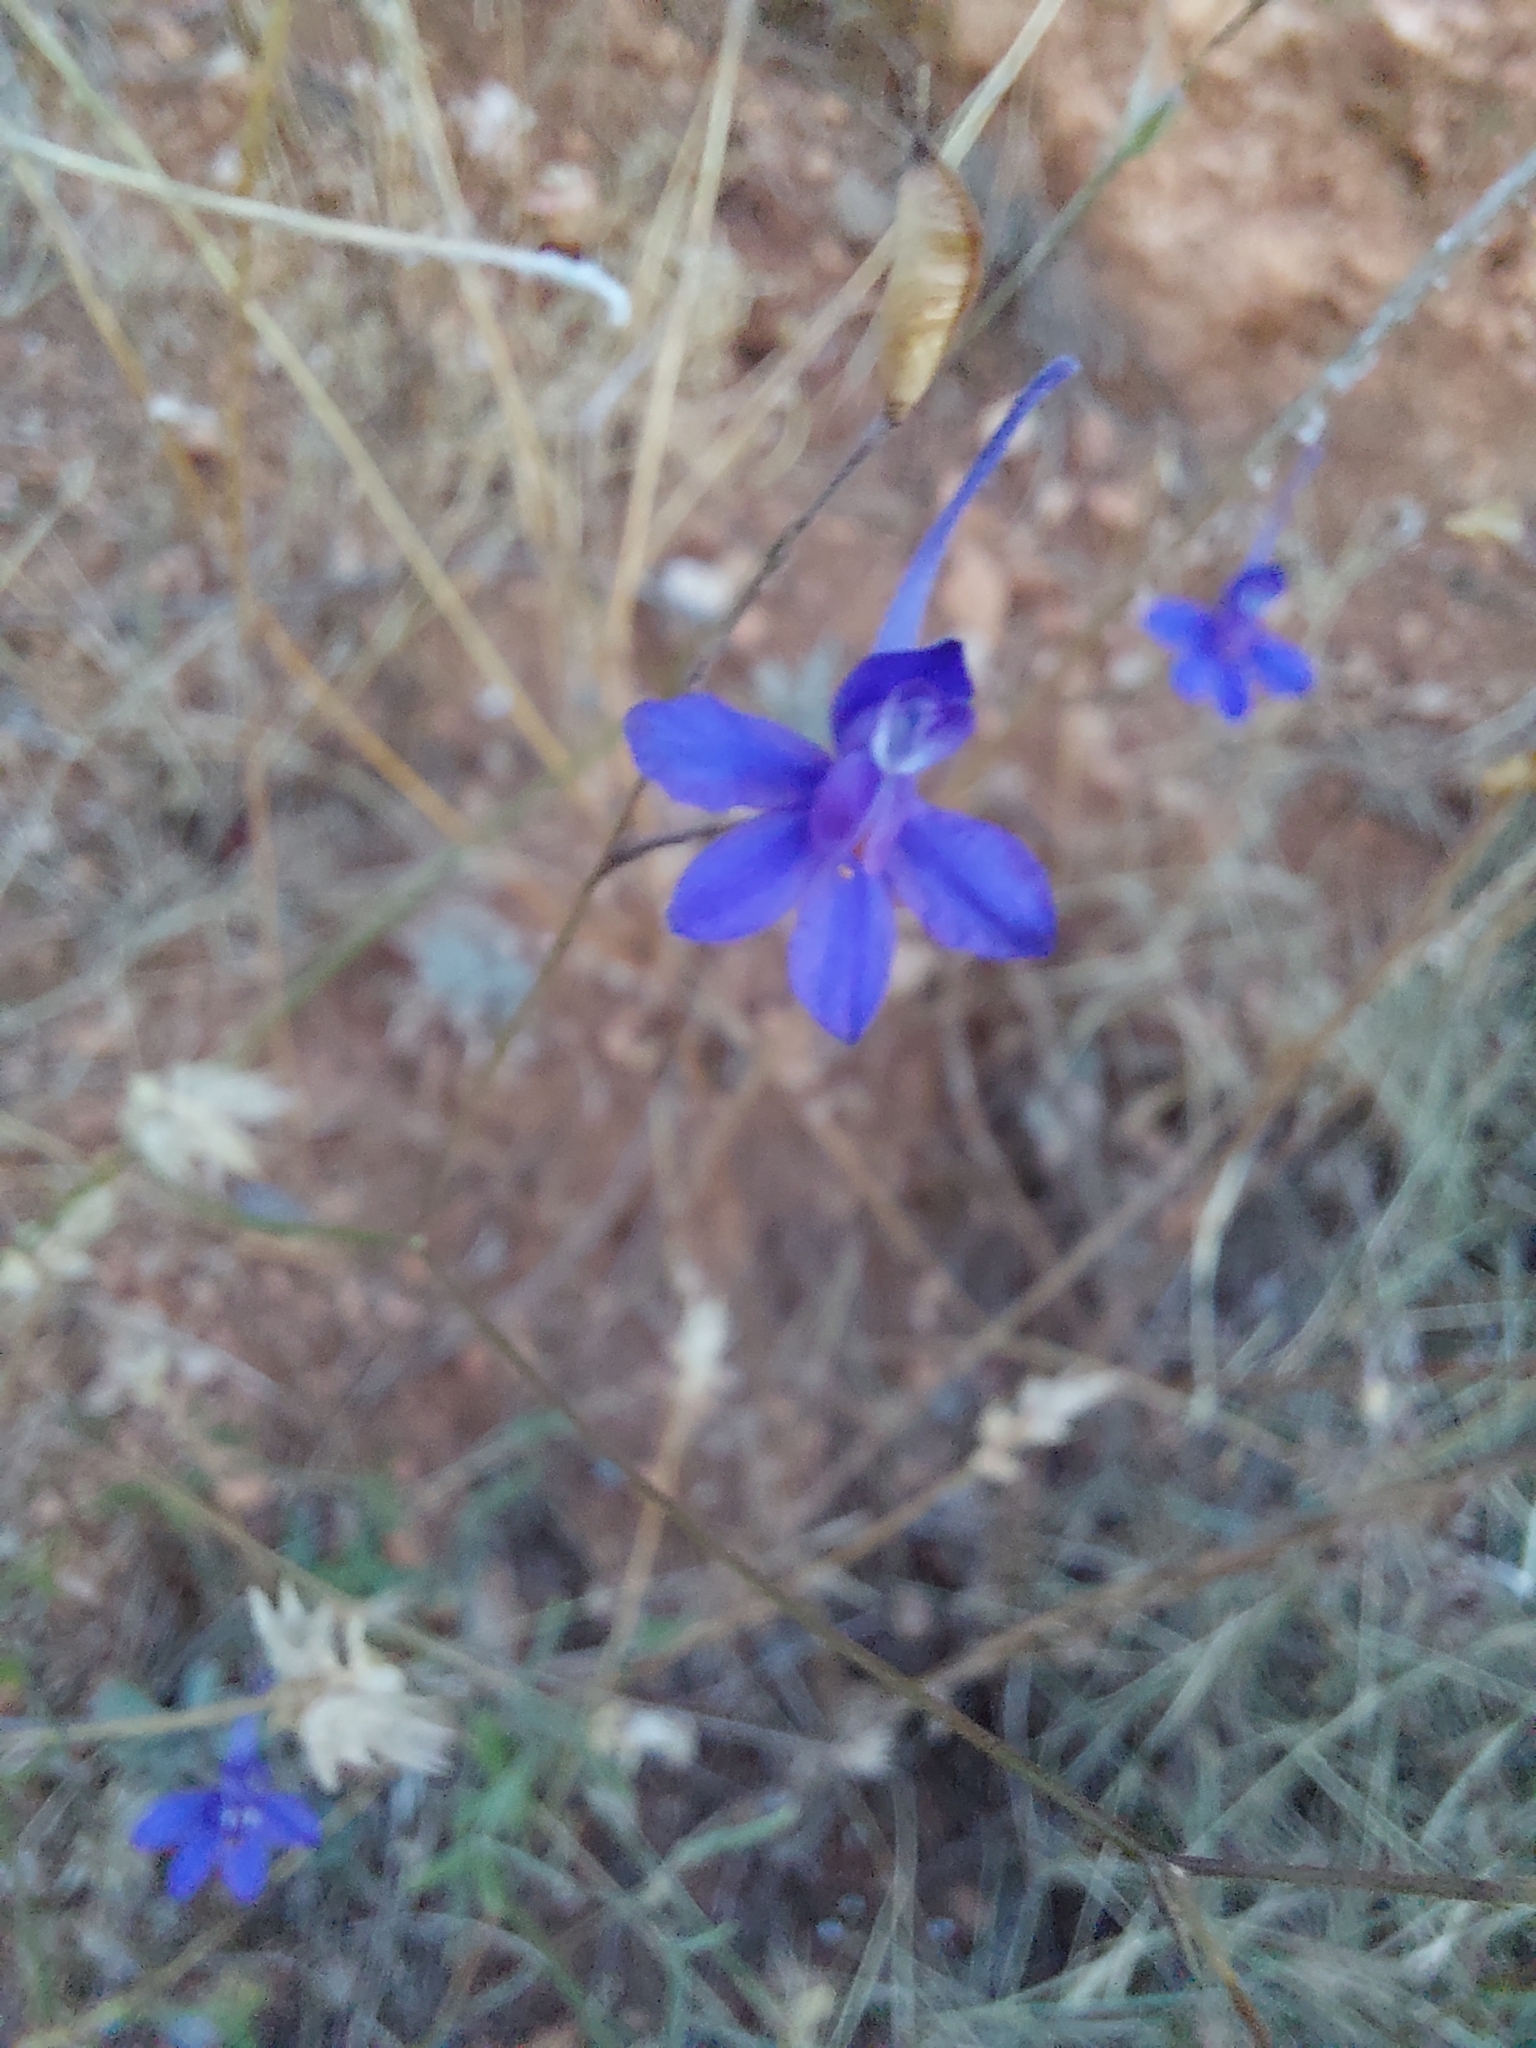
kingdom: Plantae
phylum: Tracheophyta
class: Magnoliopsida
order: Ranunculales
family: Ranunculaceae
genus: Delphinium
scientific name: Delphinium consolida
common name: Branching larkspur
